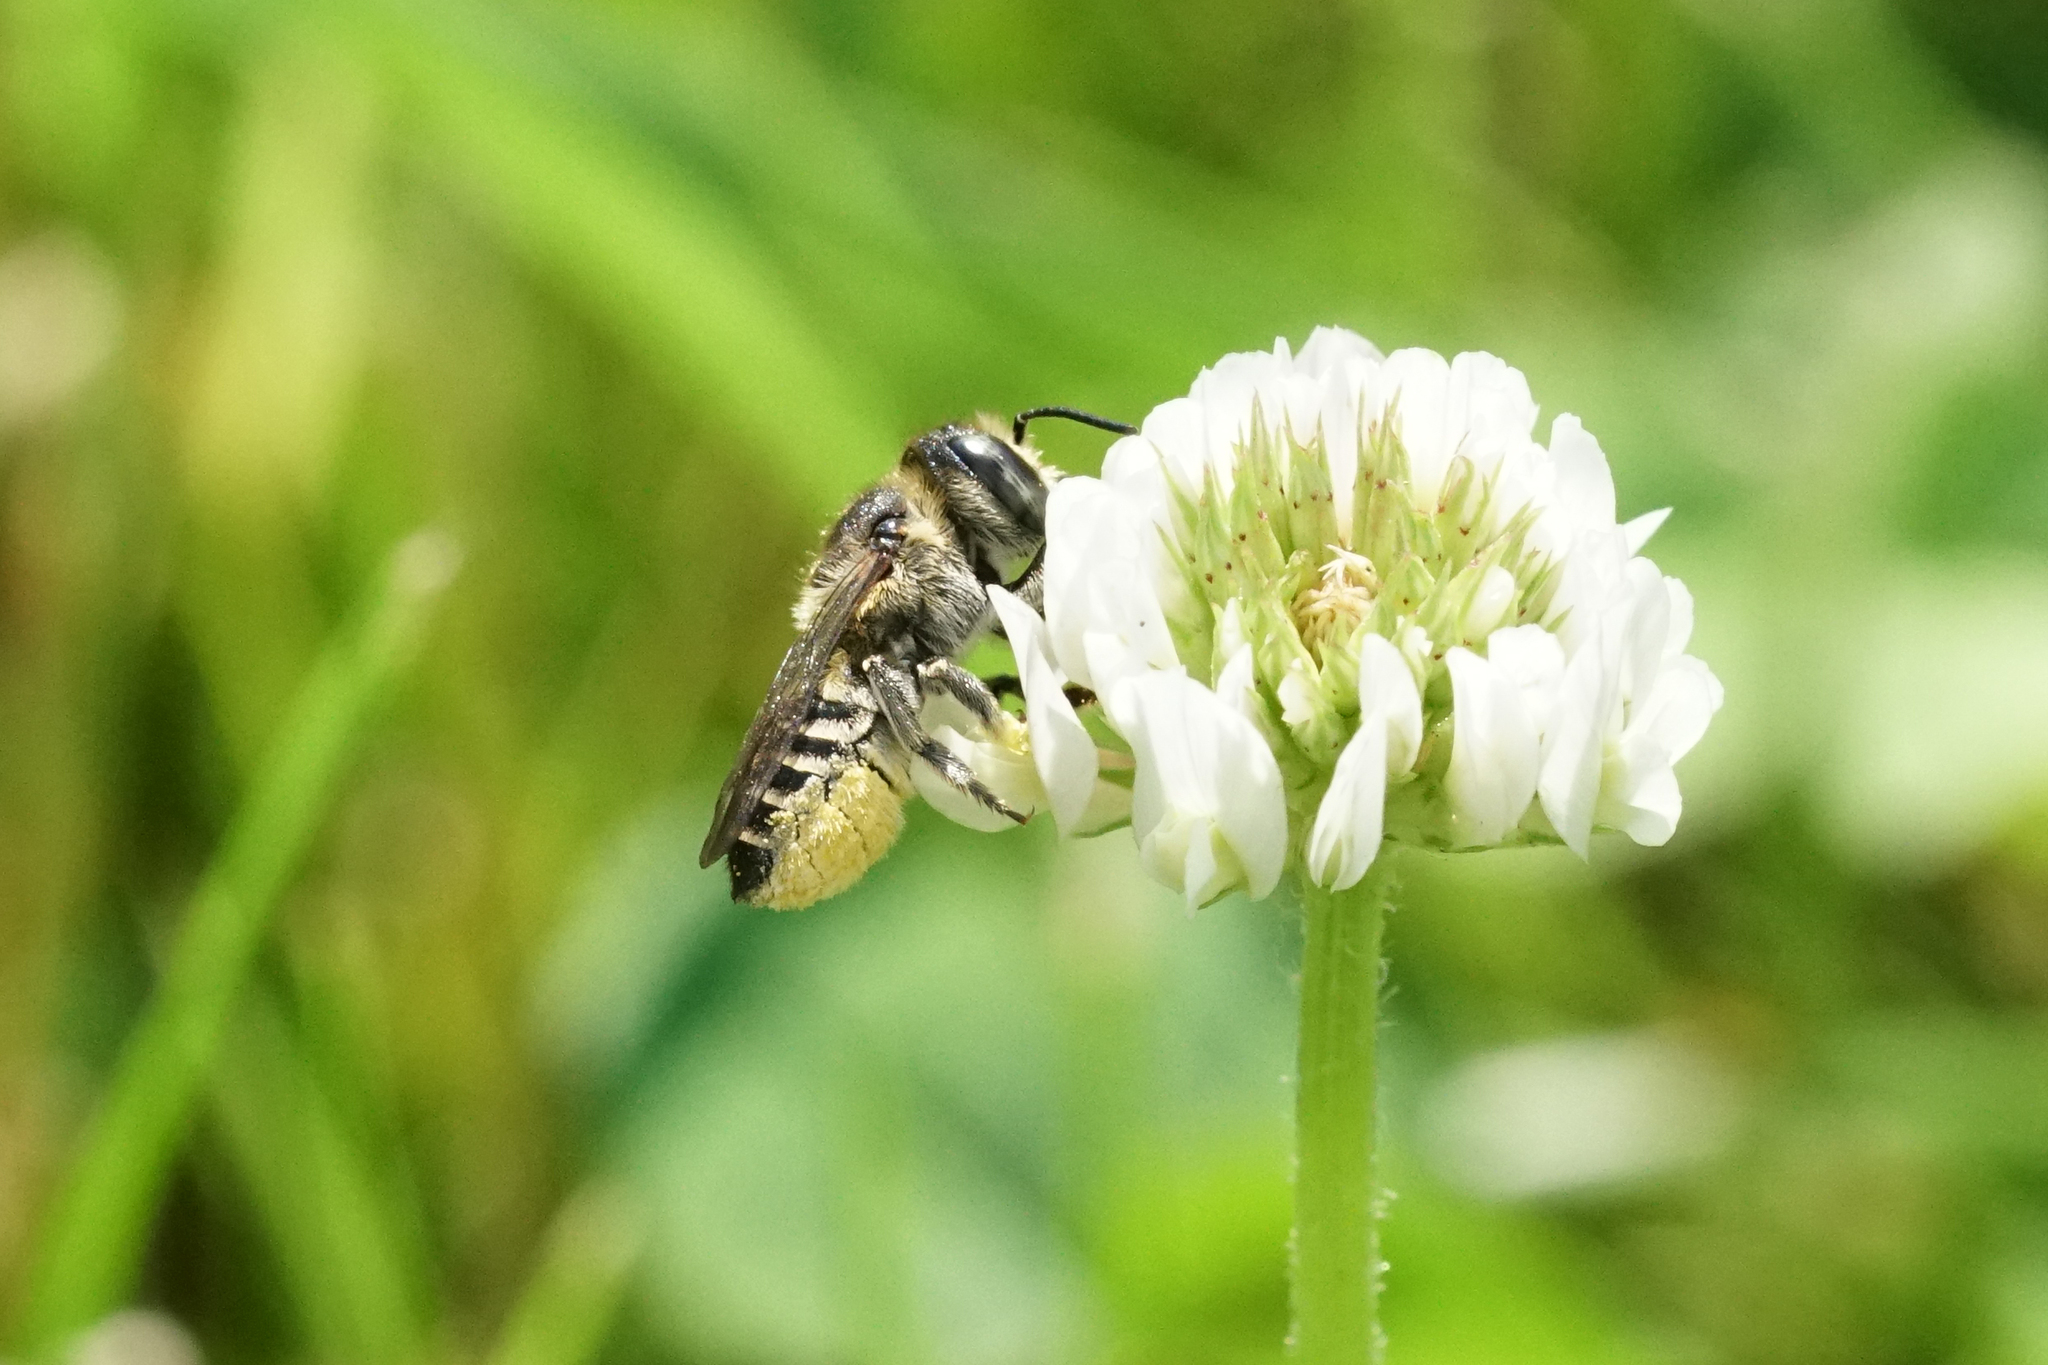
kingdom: Animalia
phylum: Arthropoda
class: Insecta
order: Hymenoptera
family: Megachilidae
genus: Megachile
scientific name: Megachile rotundata
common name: Alfalfa leafcutting bee
